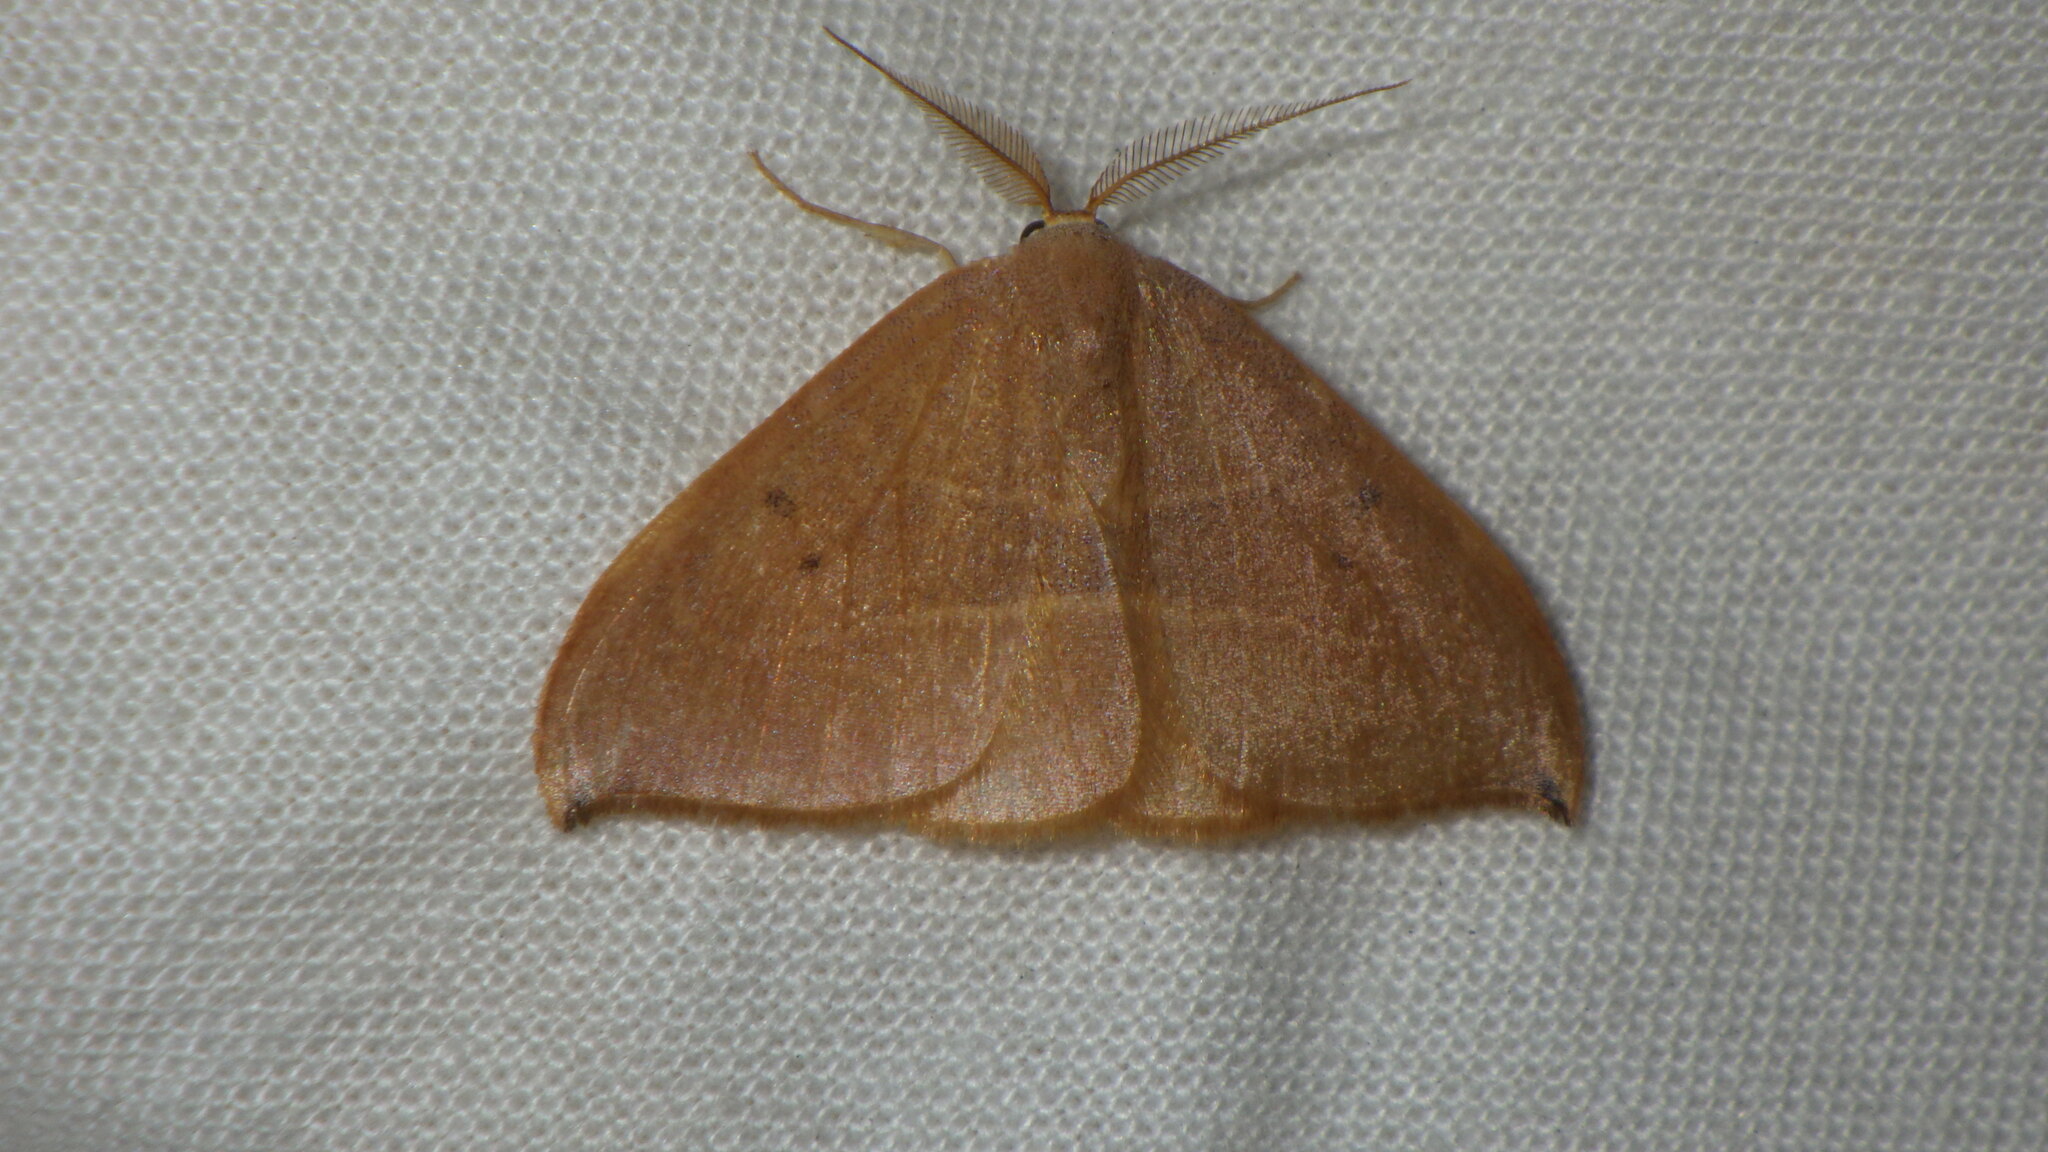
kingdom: Animalia
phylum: Arthropoda
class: Insecta
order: Lepidoptera
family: Drepanidae
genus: Watsonalla
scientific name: Watsonalla uncinula
